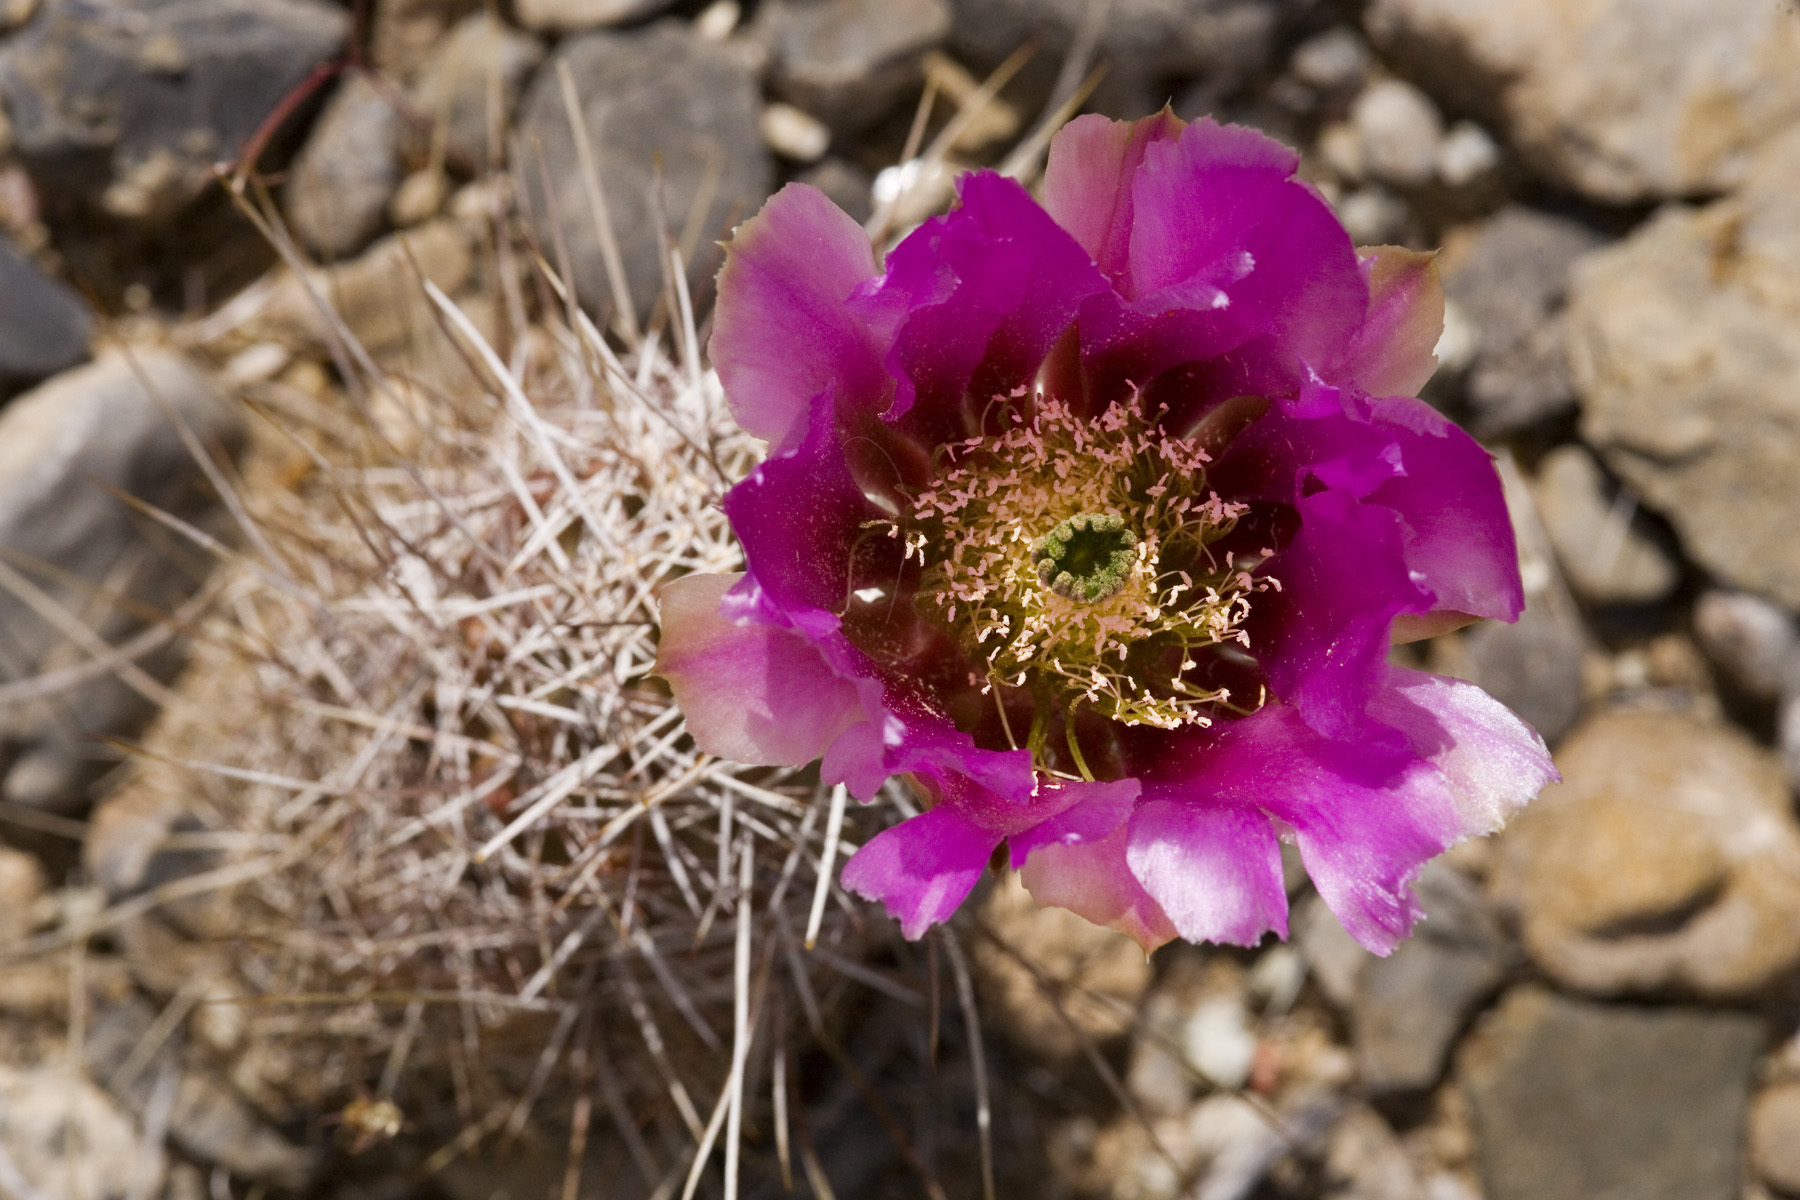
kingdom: Plantae
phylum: Tracheophyta
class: Magnoliopsida
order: Caryophyllales
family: Cactaceae
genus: Echinocereus
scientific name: Echinocereus fendleri
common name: Fendler's hedgehog cactus
